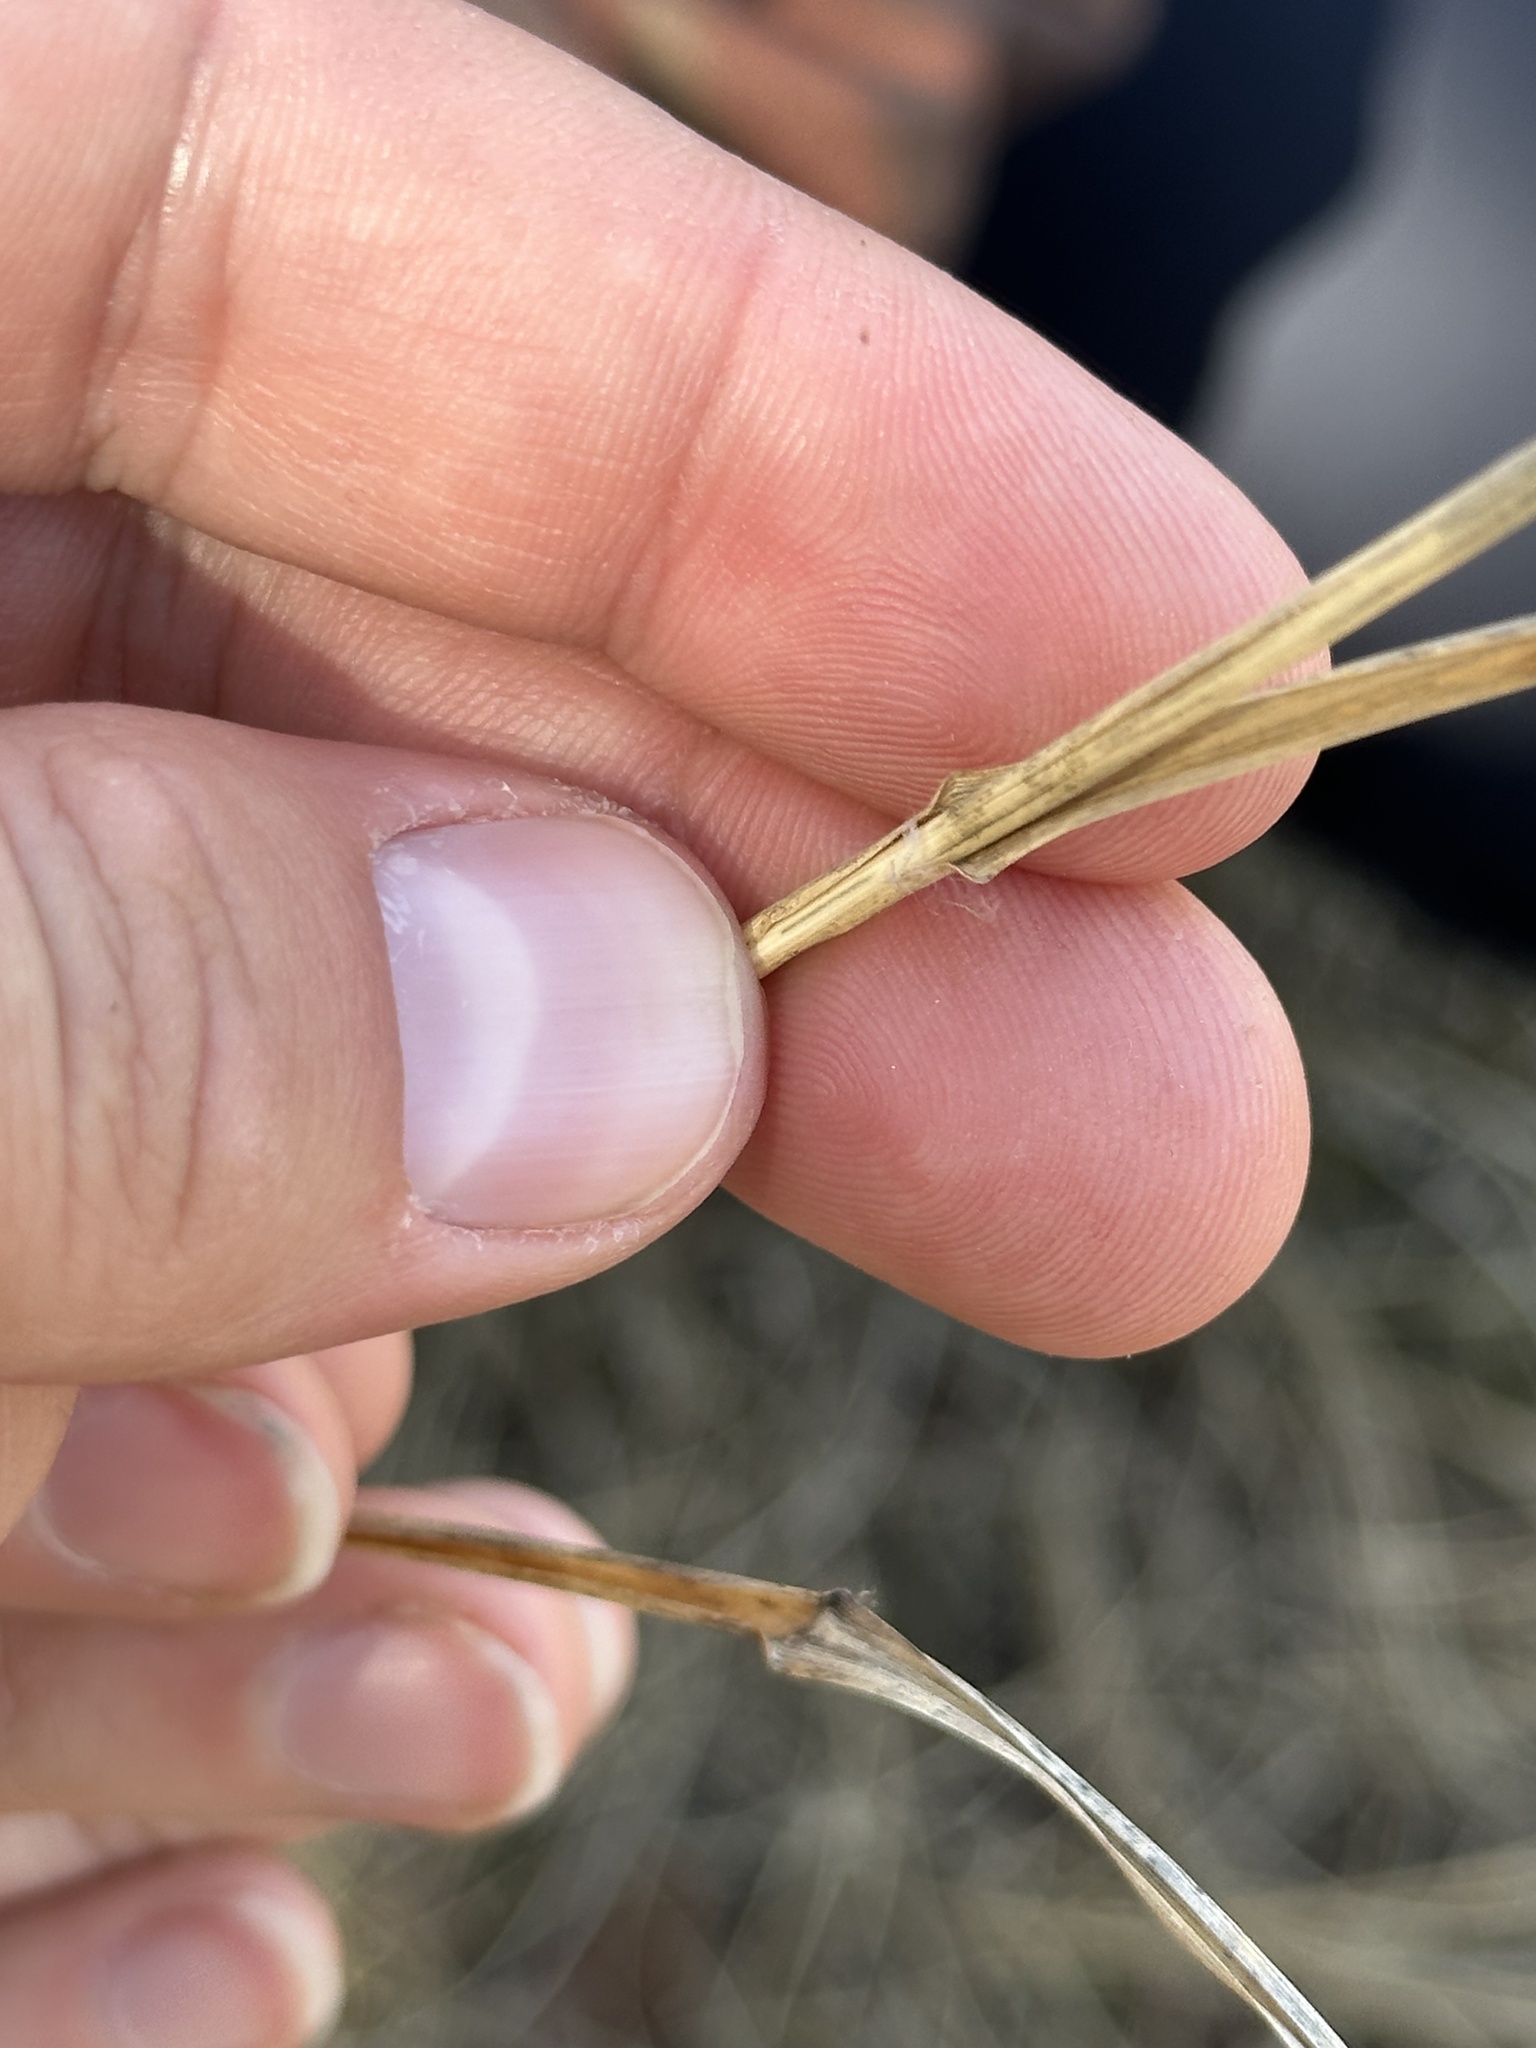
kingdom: Plantae
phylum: Tracheophyta
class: Liliopsida
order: Poales
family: Poaceae
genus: Sporobolus
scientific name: Sporobolus rigidus
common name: Prairie sandreed
